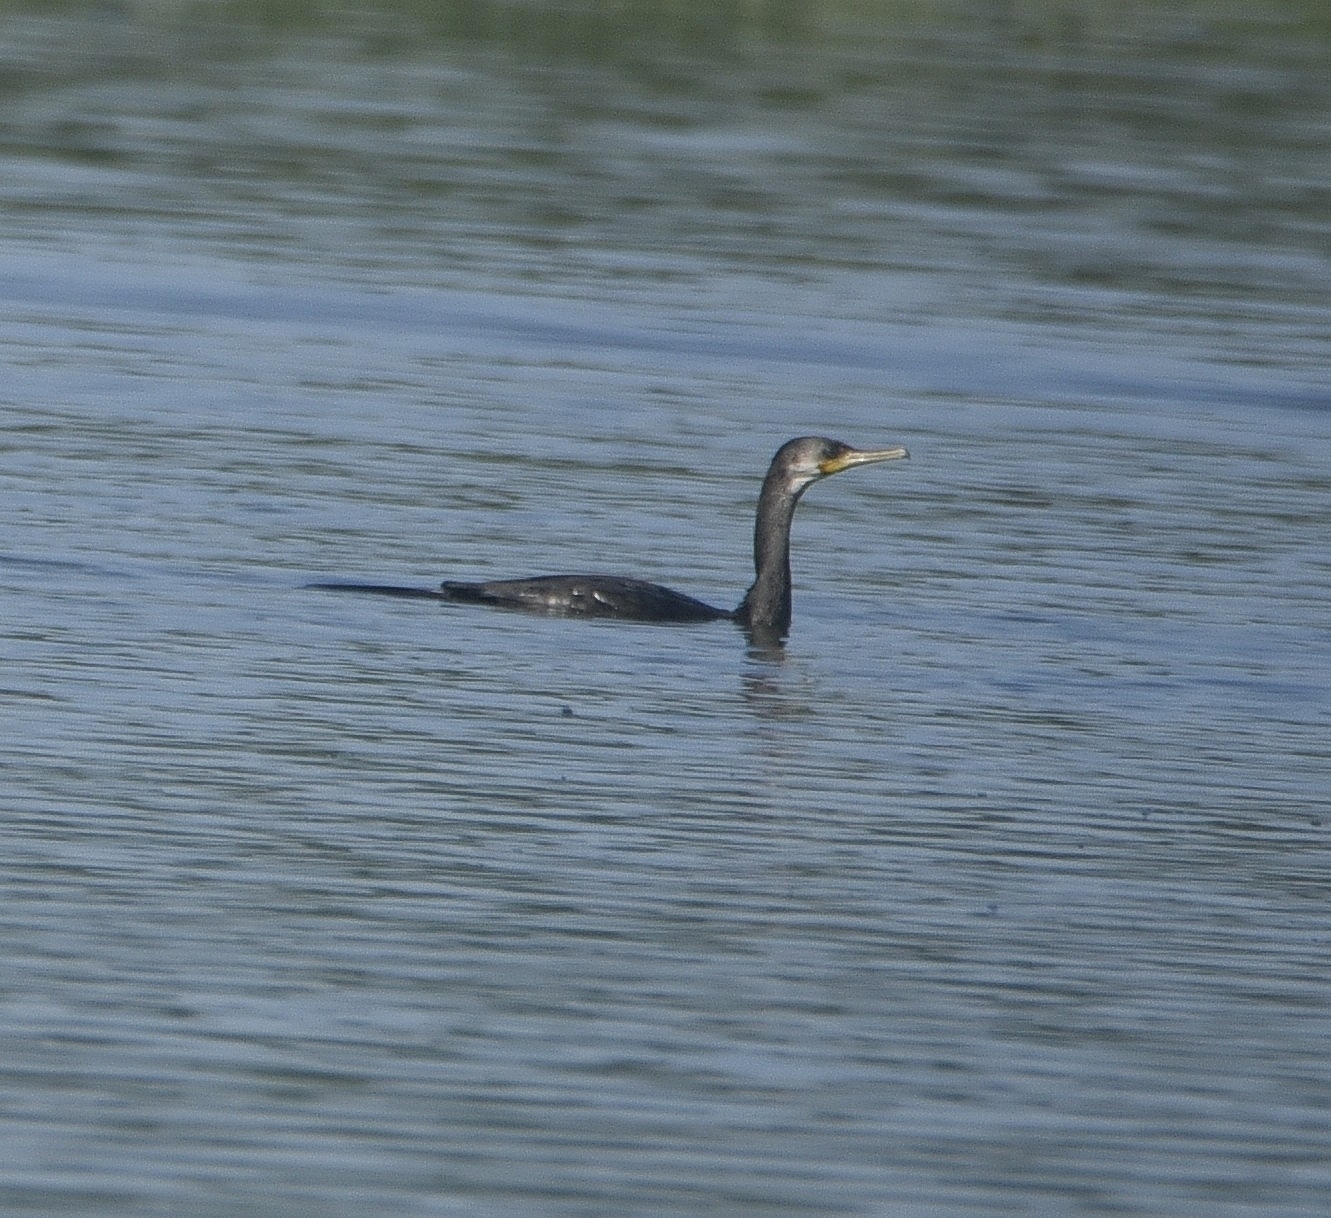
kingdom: Animalia
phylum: Chordata
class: Aves
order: Suliformes
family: Phalacrocoracidae
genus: Phalacrocorax
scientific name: Phalacrocorax fuscicollis
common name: Indian cormorant
